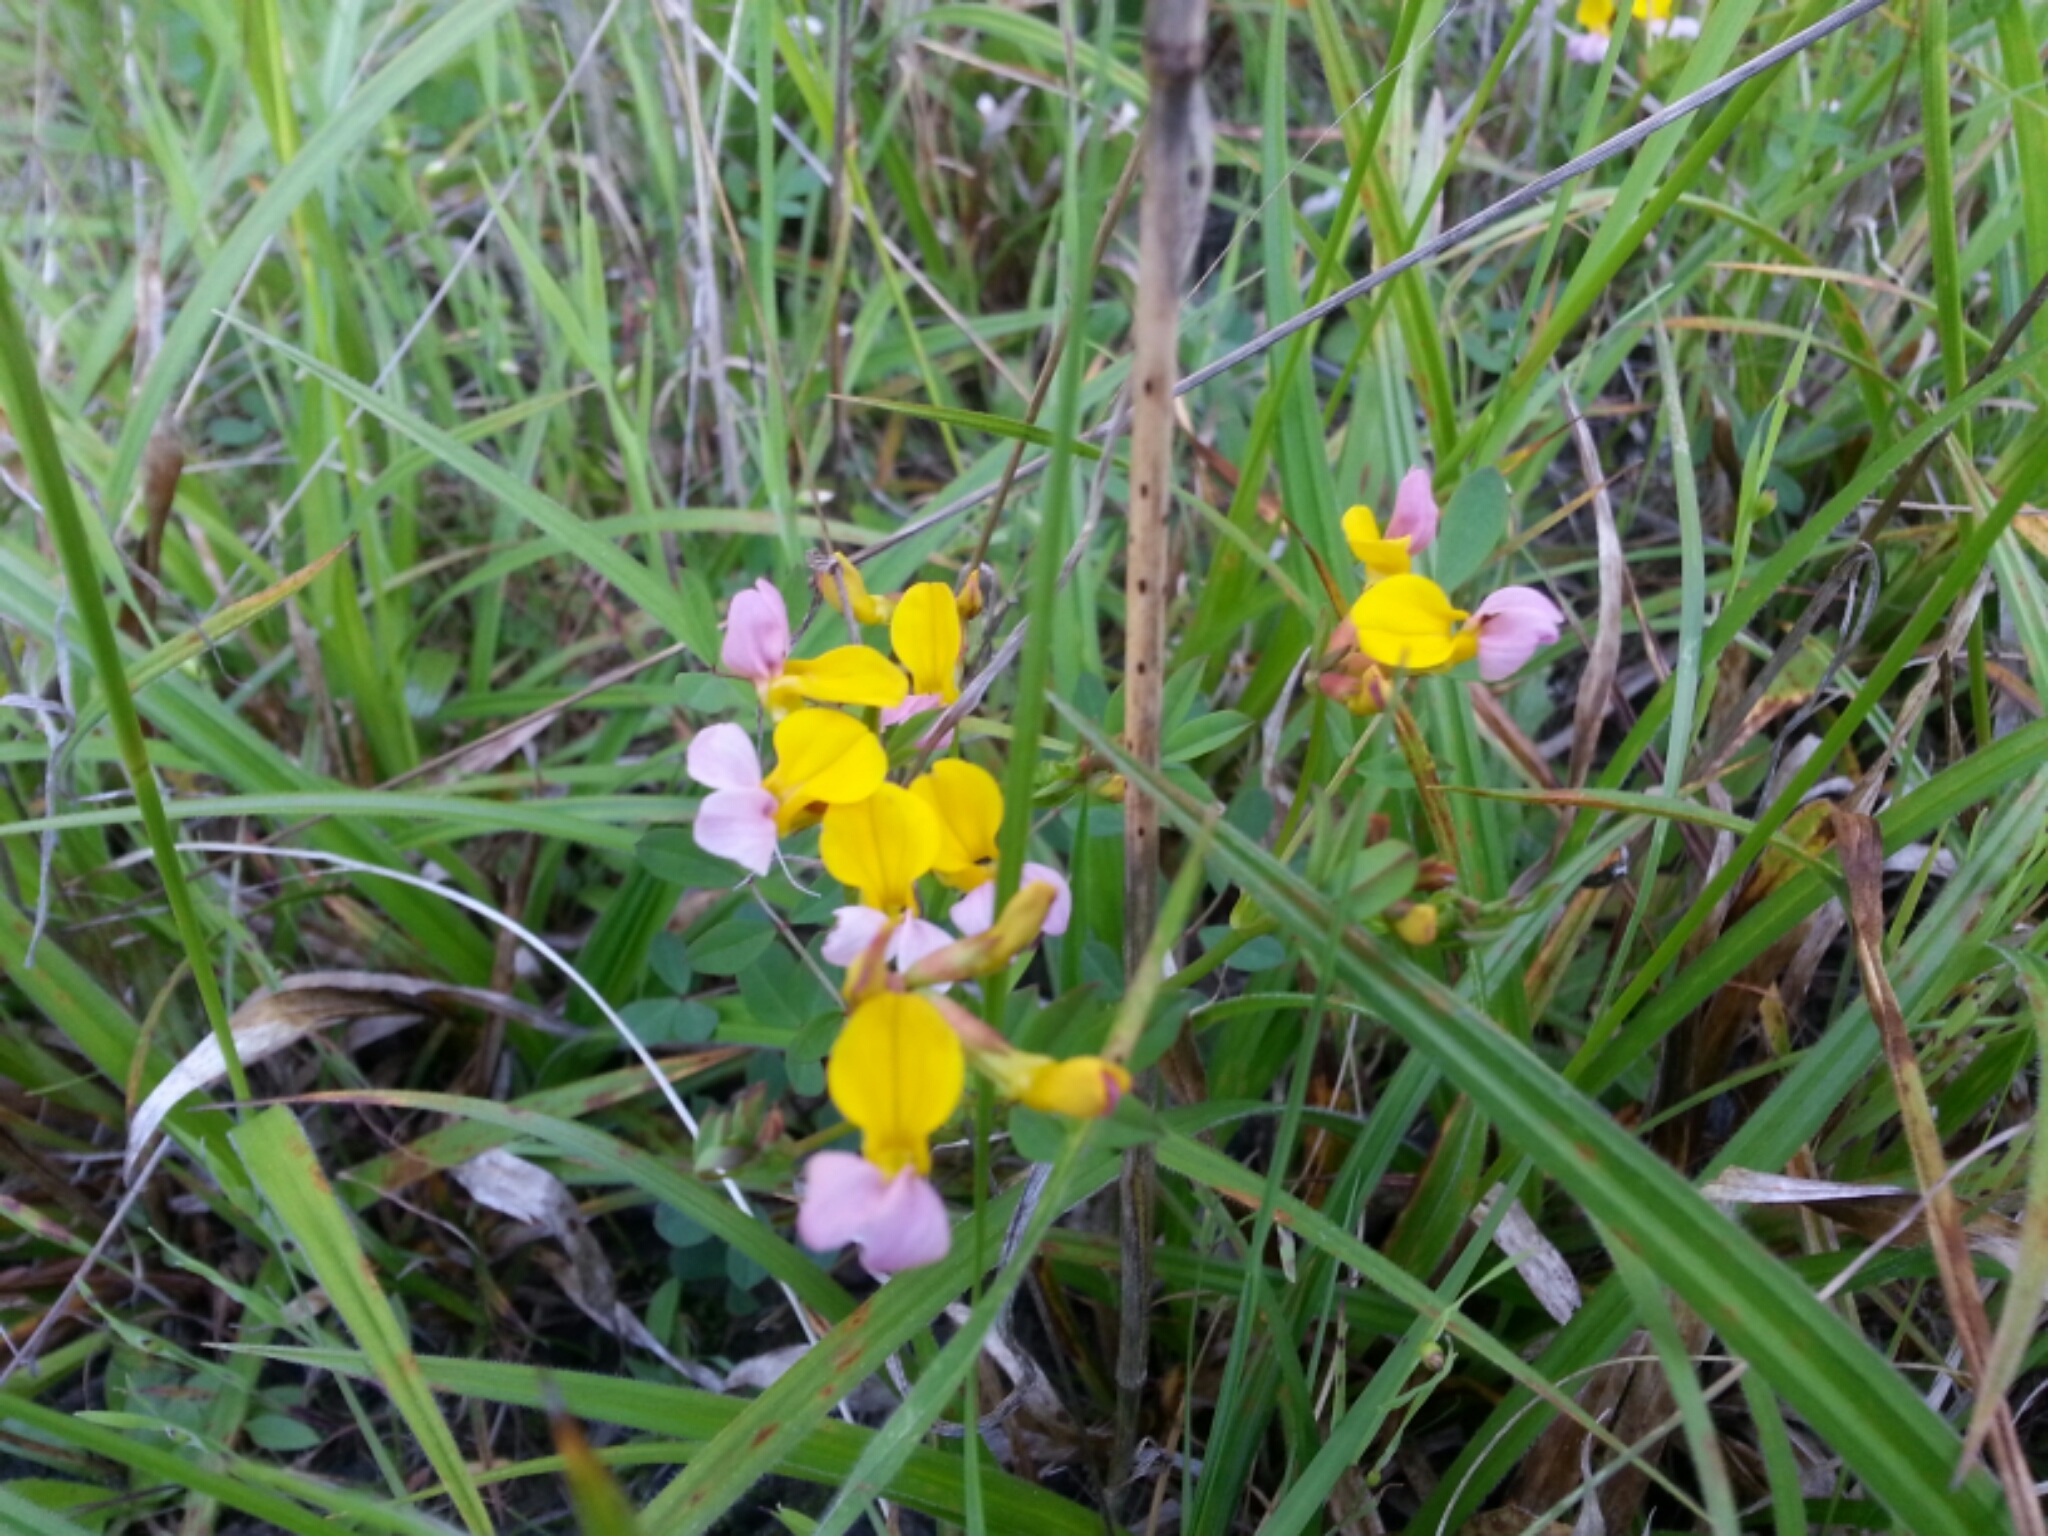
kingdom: Plantae
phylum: Tracheophyta
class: Magnoliopsida
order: Fabales
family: Fabaceae
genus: Hosackia
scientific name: Hosackia gracilis
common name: Seaside bird's-foot lotus
